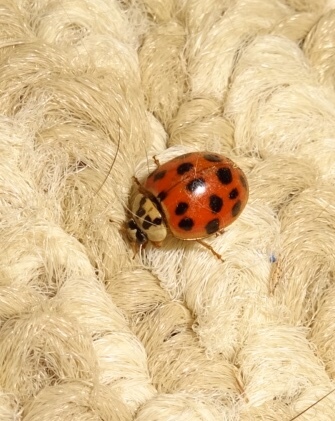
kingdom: Animalia
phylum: Arthropoda
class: Insecta
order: Coleoptera
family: Coccinellidae
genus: Harmonia
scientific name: Harmonia axyridis
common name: Harlequin ladybird
